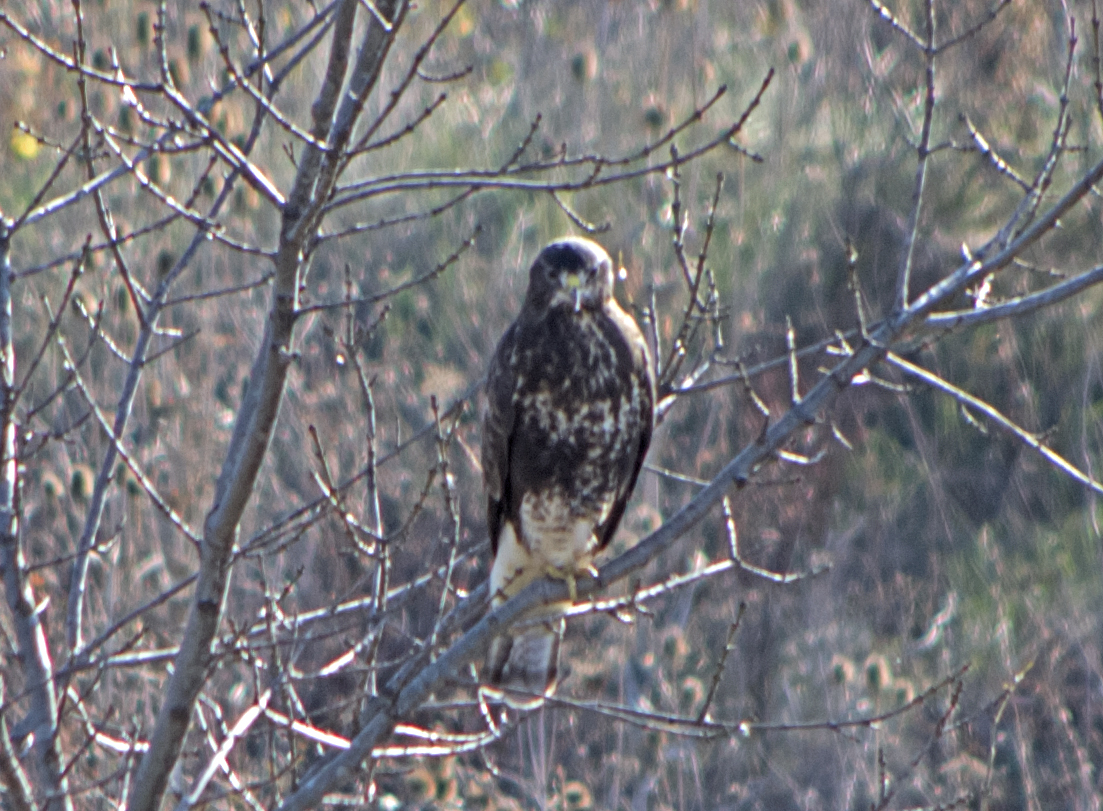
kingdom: Animalia
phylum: Chordata
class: Aves
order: Accipitriformes
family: Accipitridae
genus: Buteo
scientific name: Buteo buteo
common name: Common buzzard
